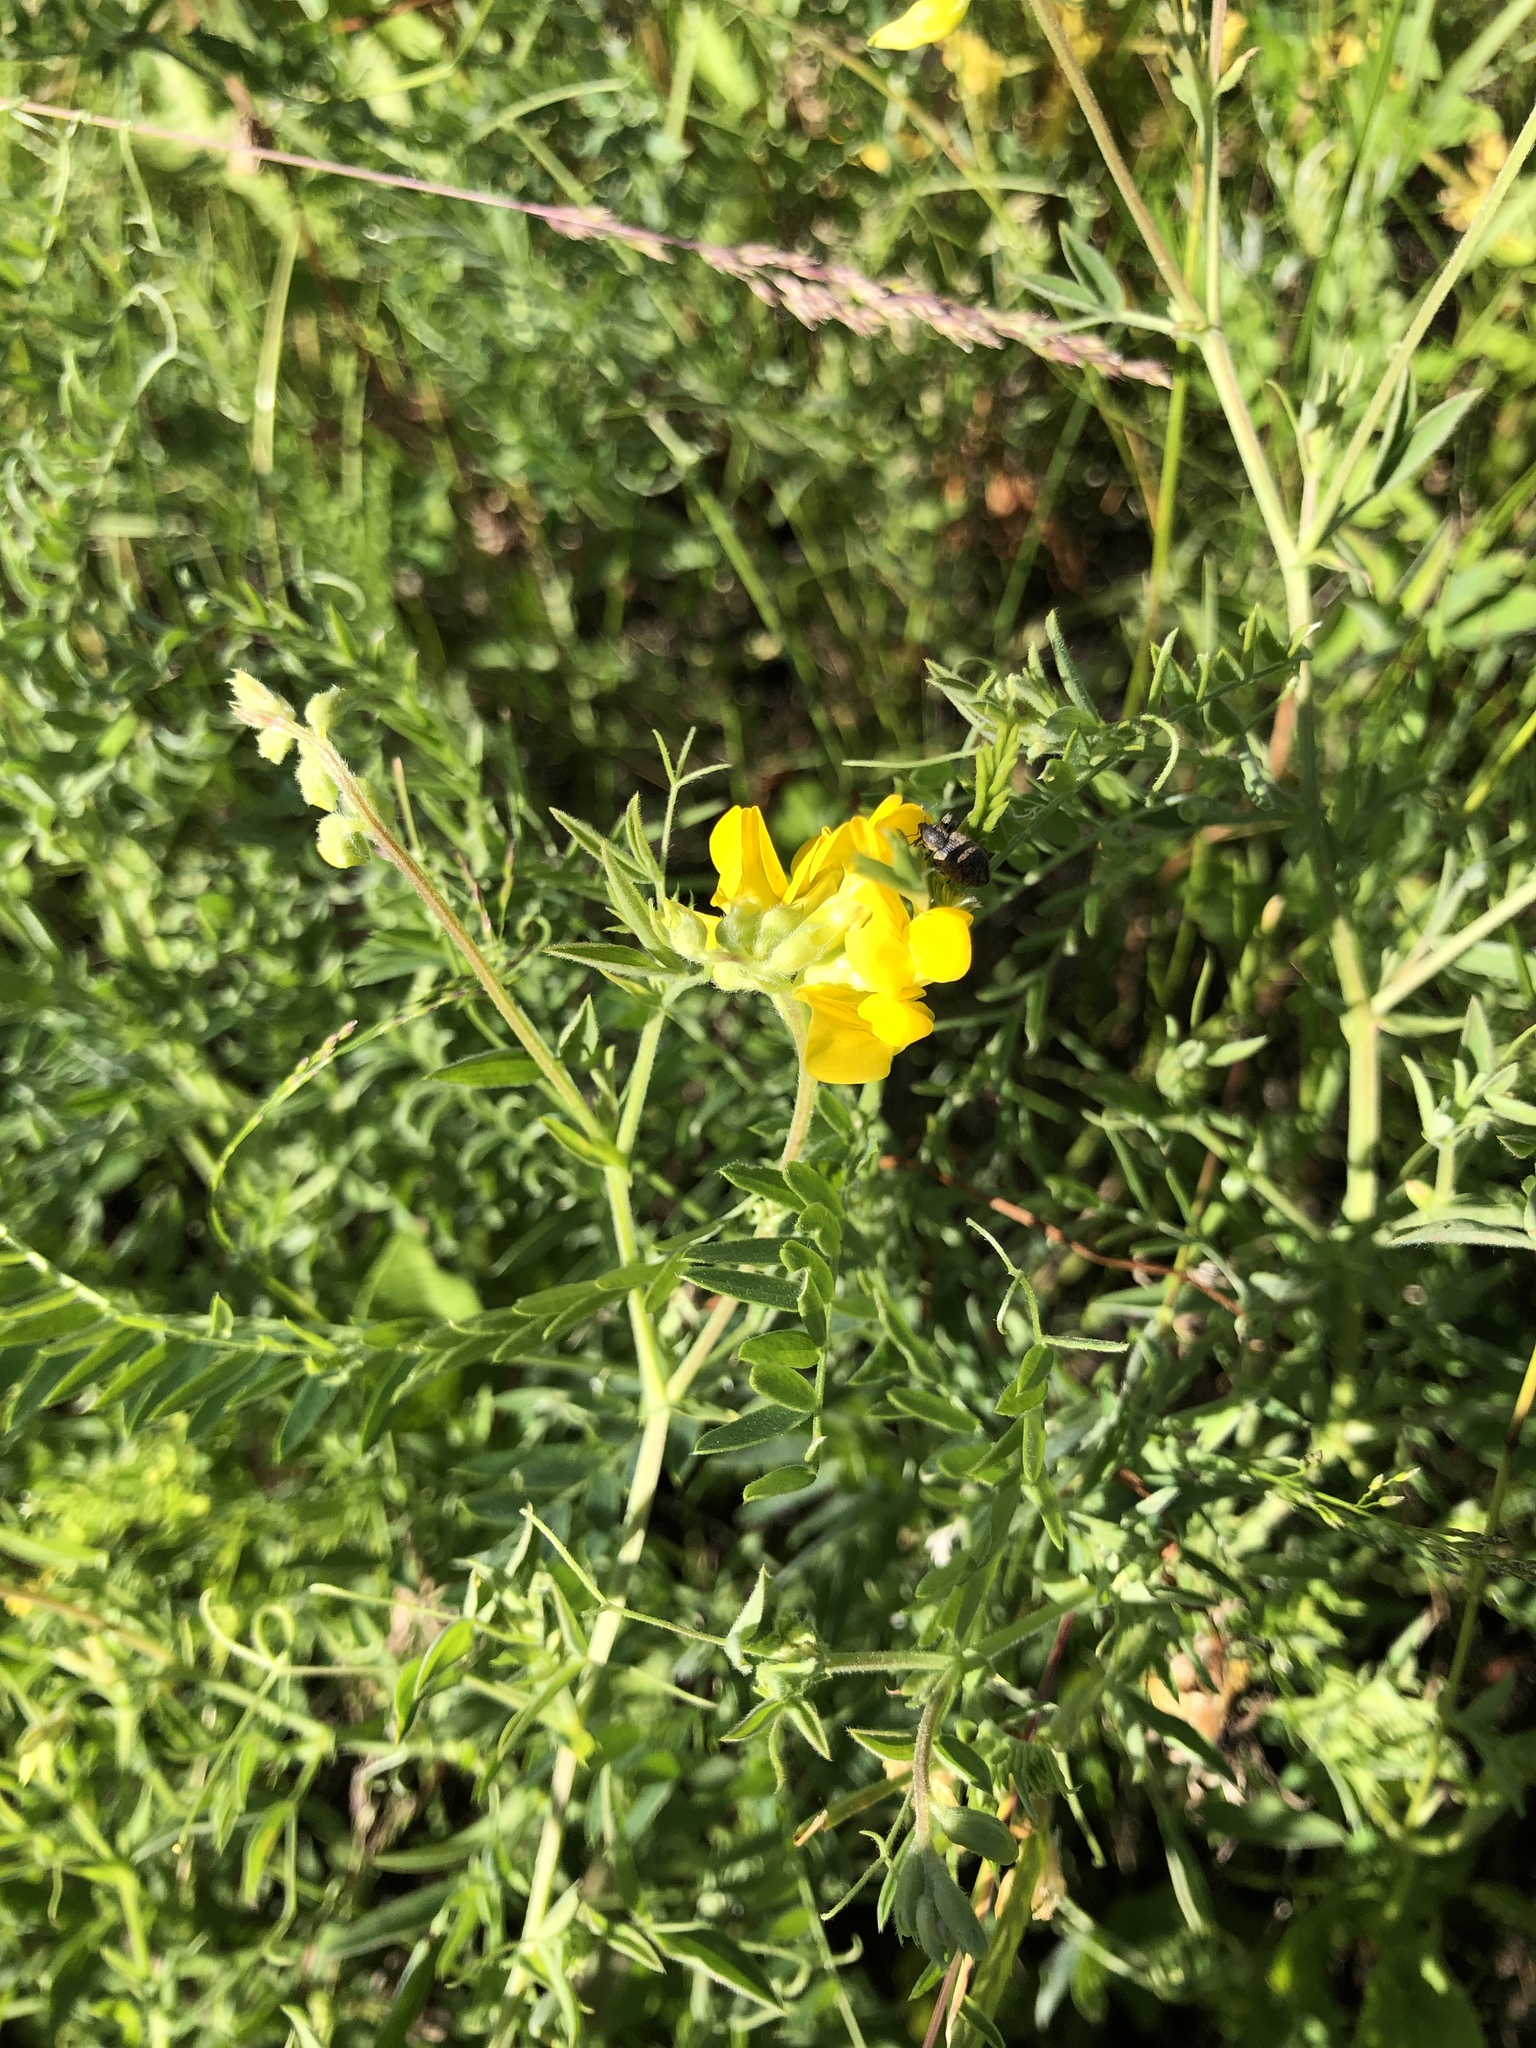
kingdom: Plantae
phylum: Tracheophyta
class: Magnoliopsida
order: Fabales
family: Fabaceae
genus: Lathyrus
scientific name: Lathyrus pratensis
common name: Meadow vetchling
